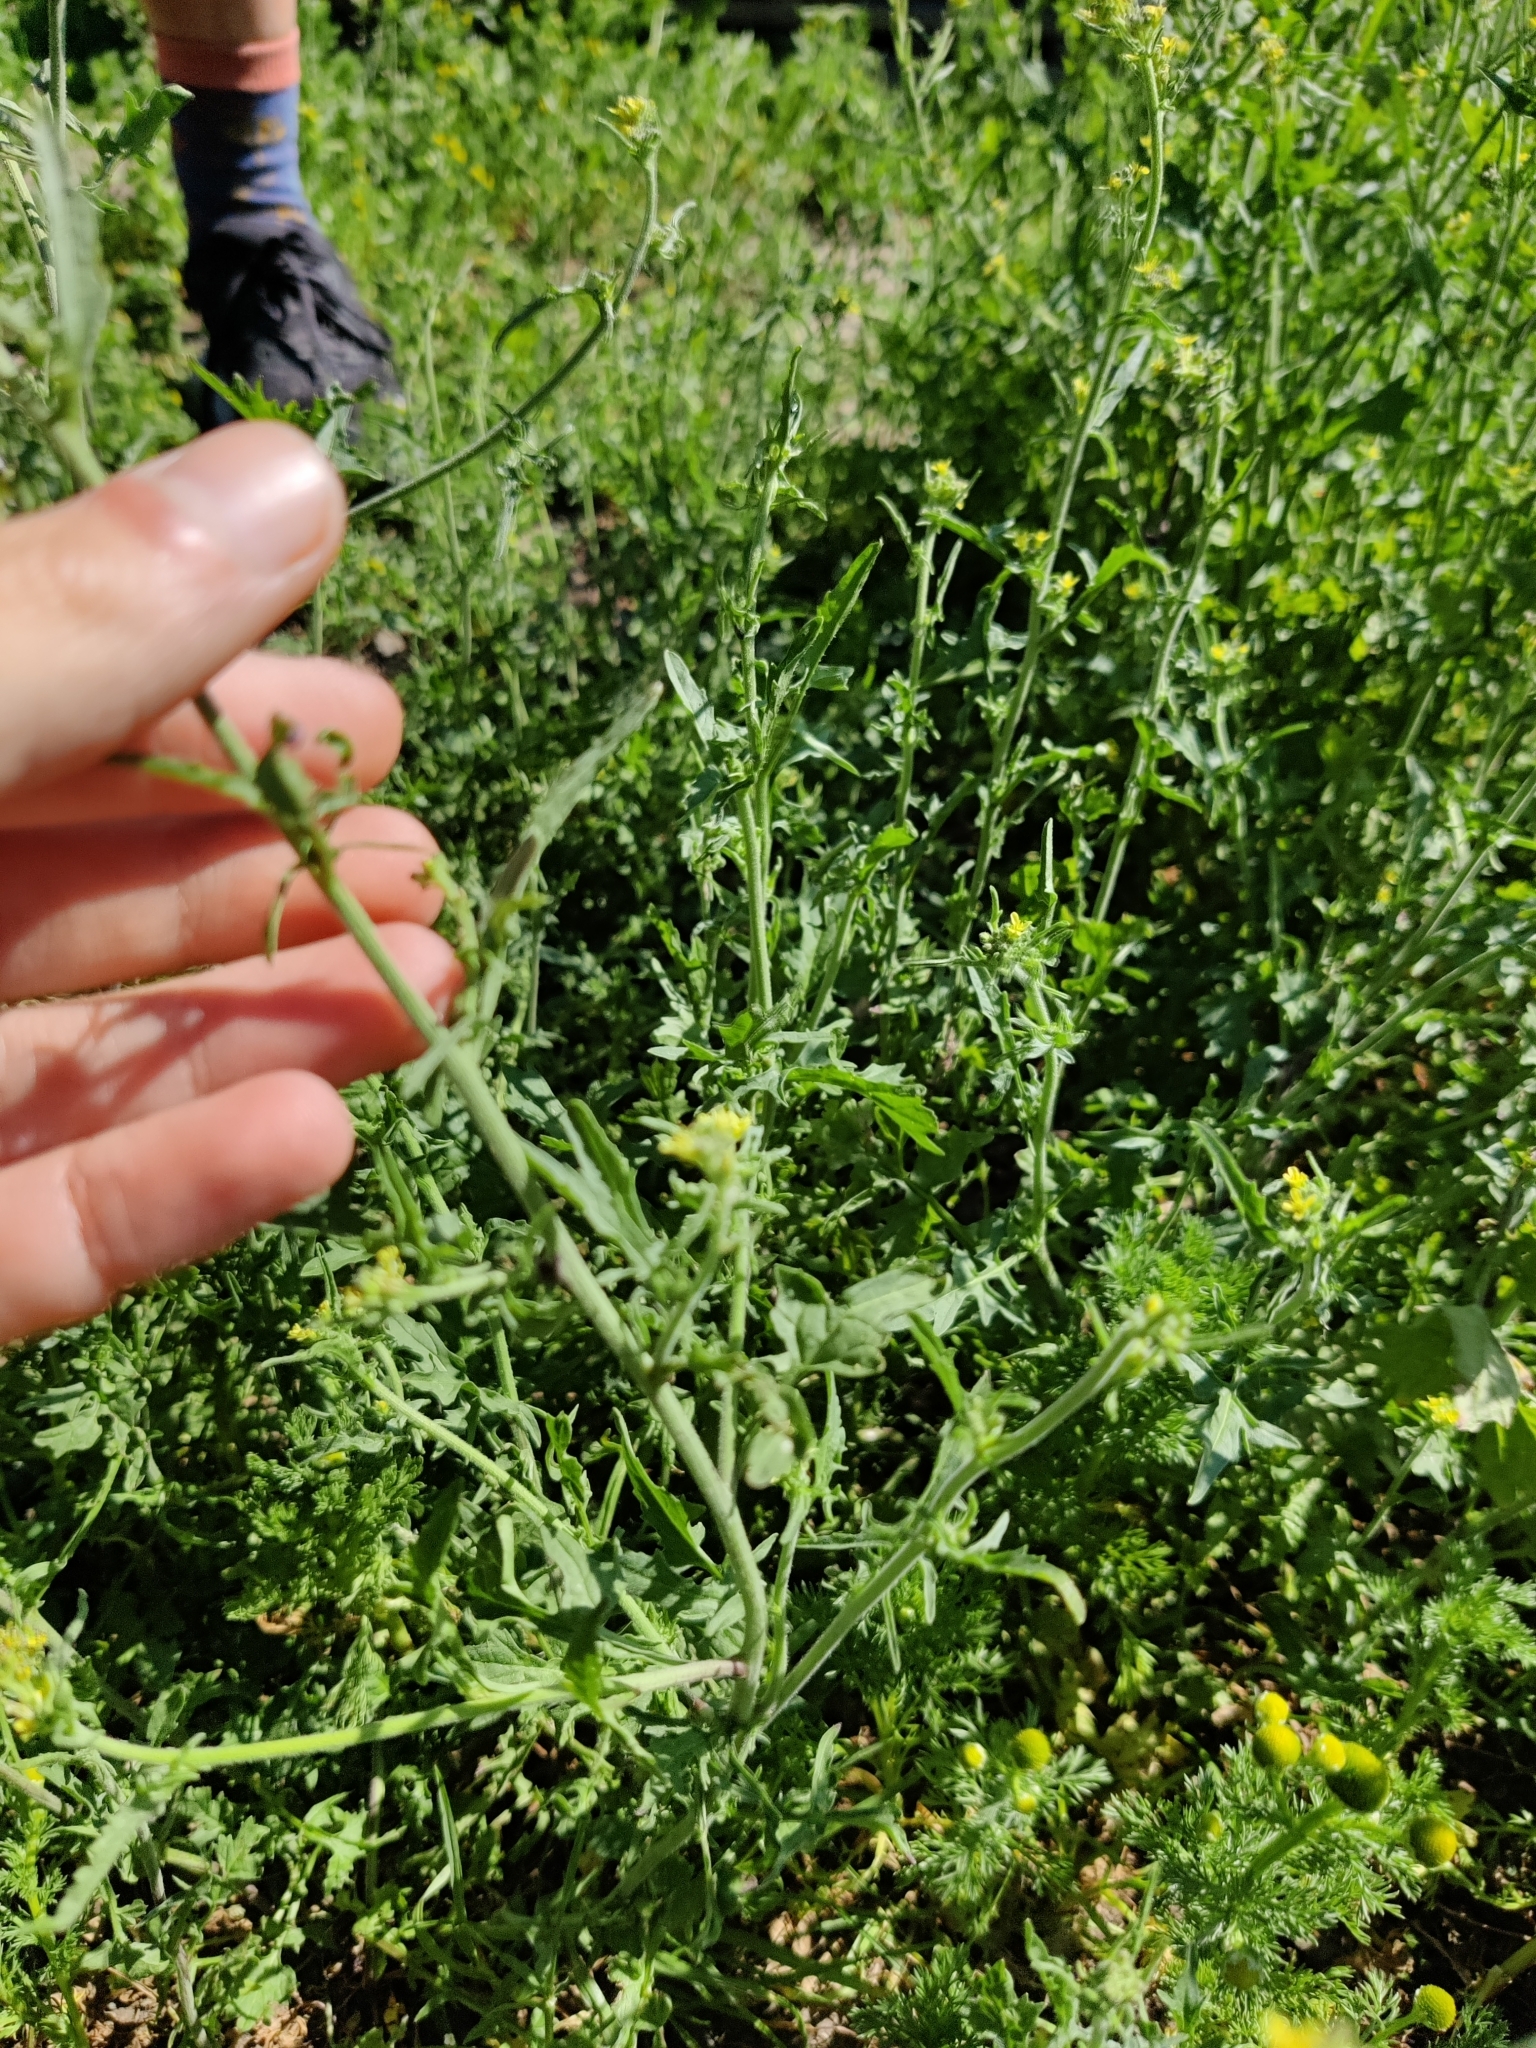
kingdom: Plantae
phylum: Tracheophyta
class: Magnoliopsida
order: Brassicales
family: Brassicaceae
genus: Sisymbrium
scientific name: Sisymbrium officinale
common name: Hedge mustard
